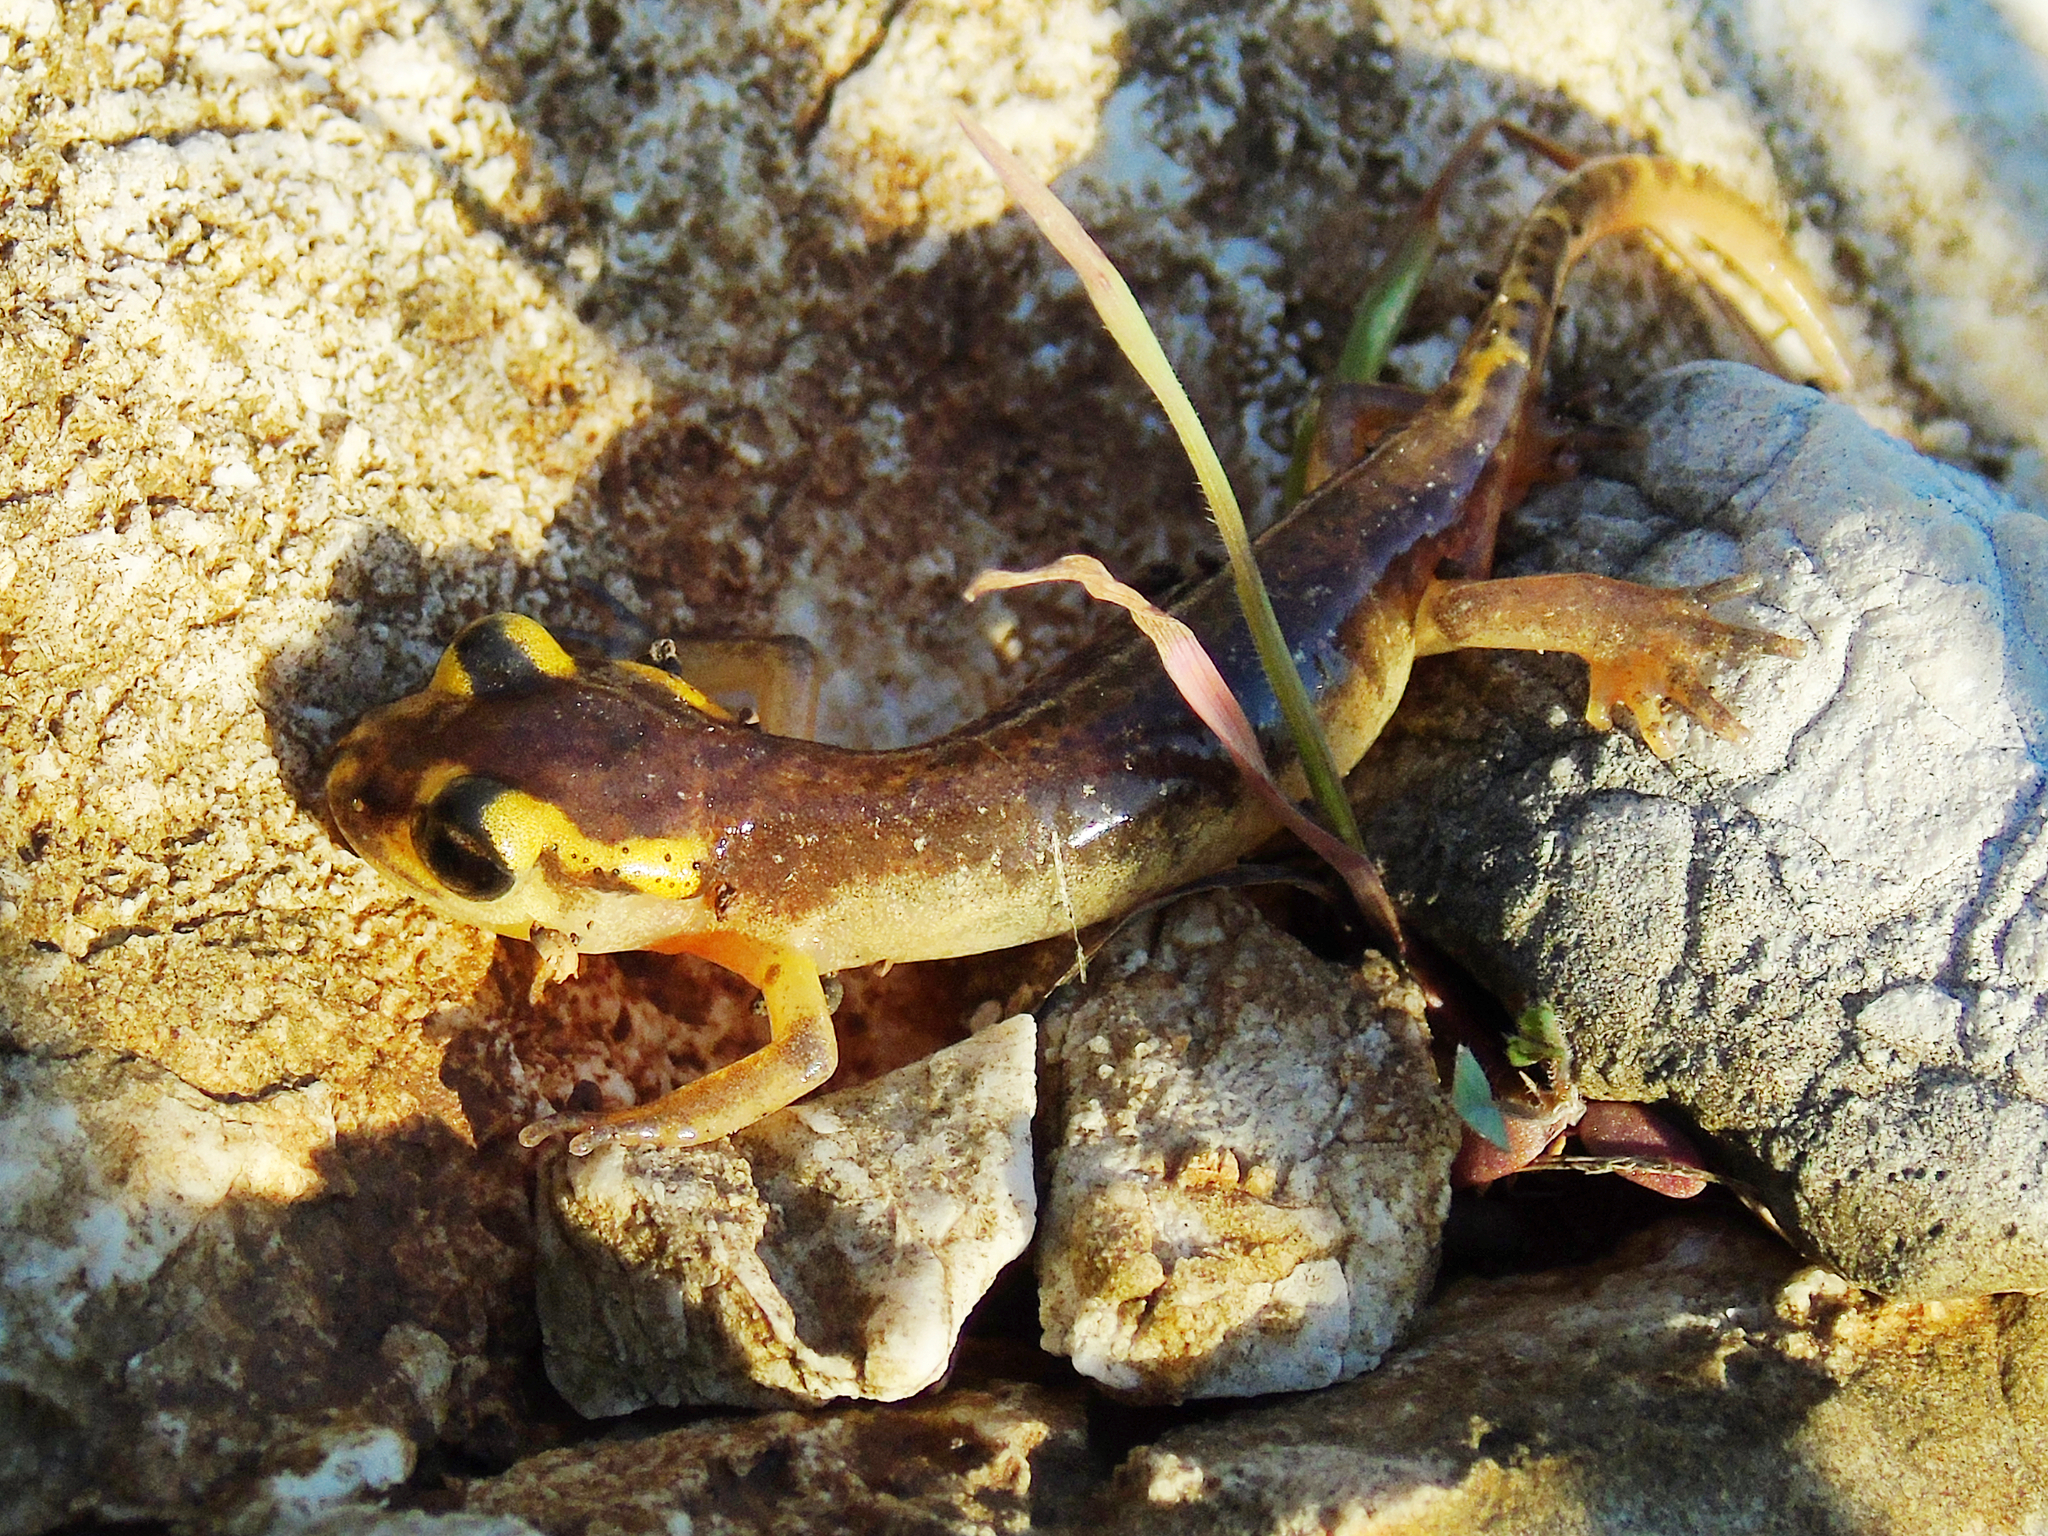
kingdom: Animalia
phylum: Chordata
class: Amphibia
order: Caudata
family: Salamandridae
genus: Lyciasalamandra
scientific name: Lyciasalamandra antalyana
